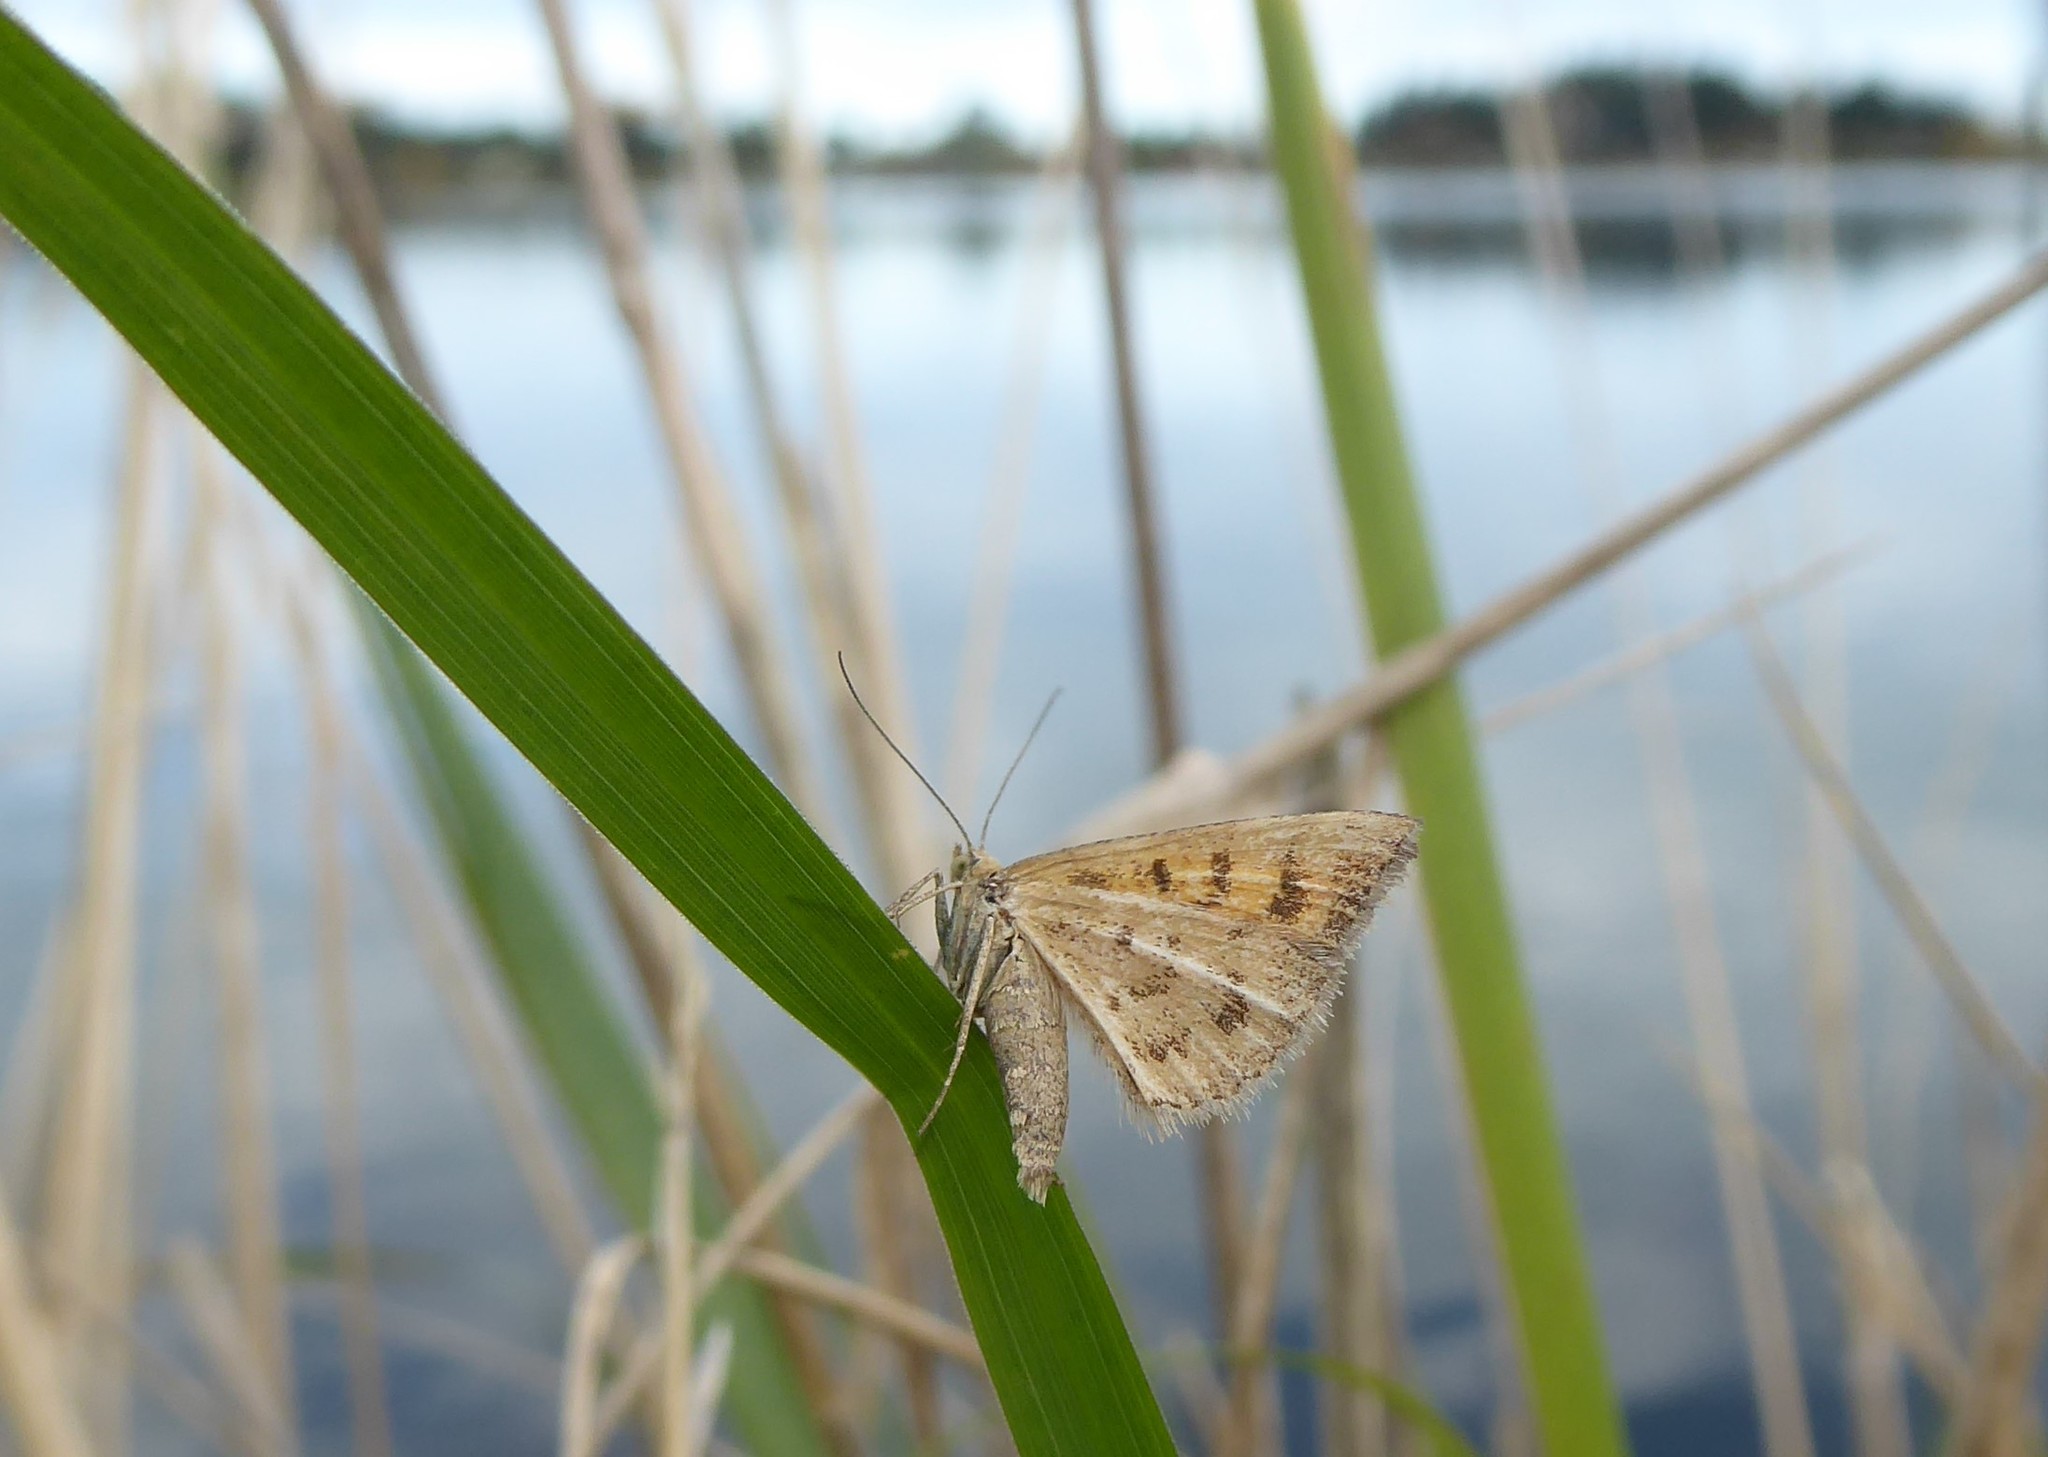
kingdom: Animalia
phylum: Arthropoda
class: Insecta
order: Lepidoptera
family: Geometridae
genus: Asaphodes
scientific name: Asaphodes abrogata
